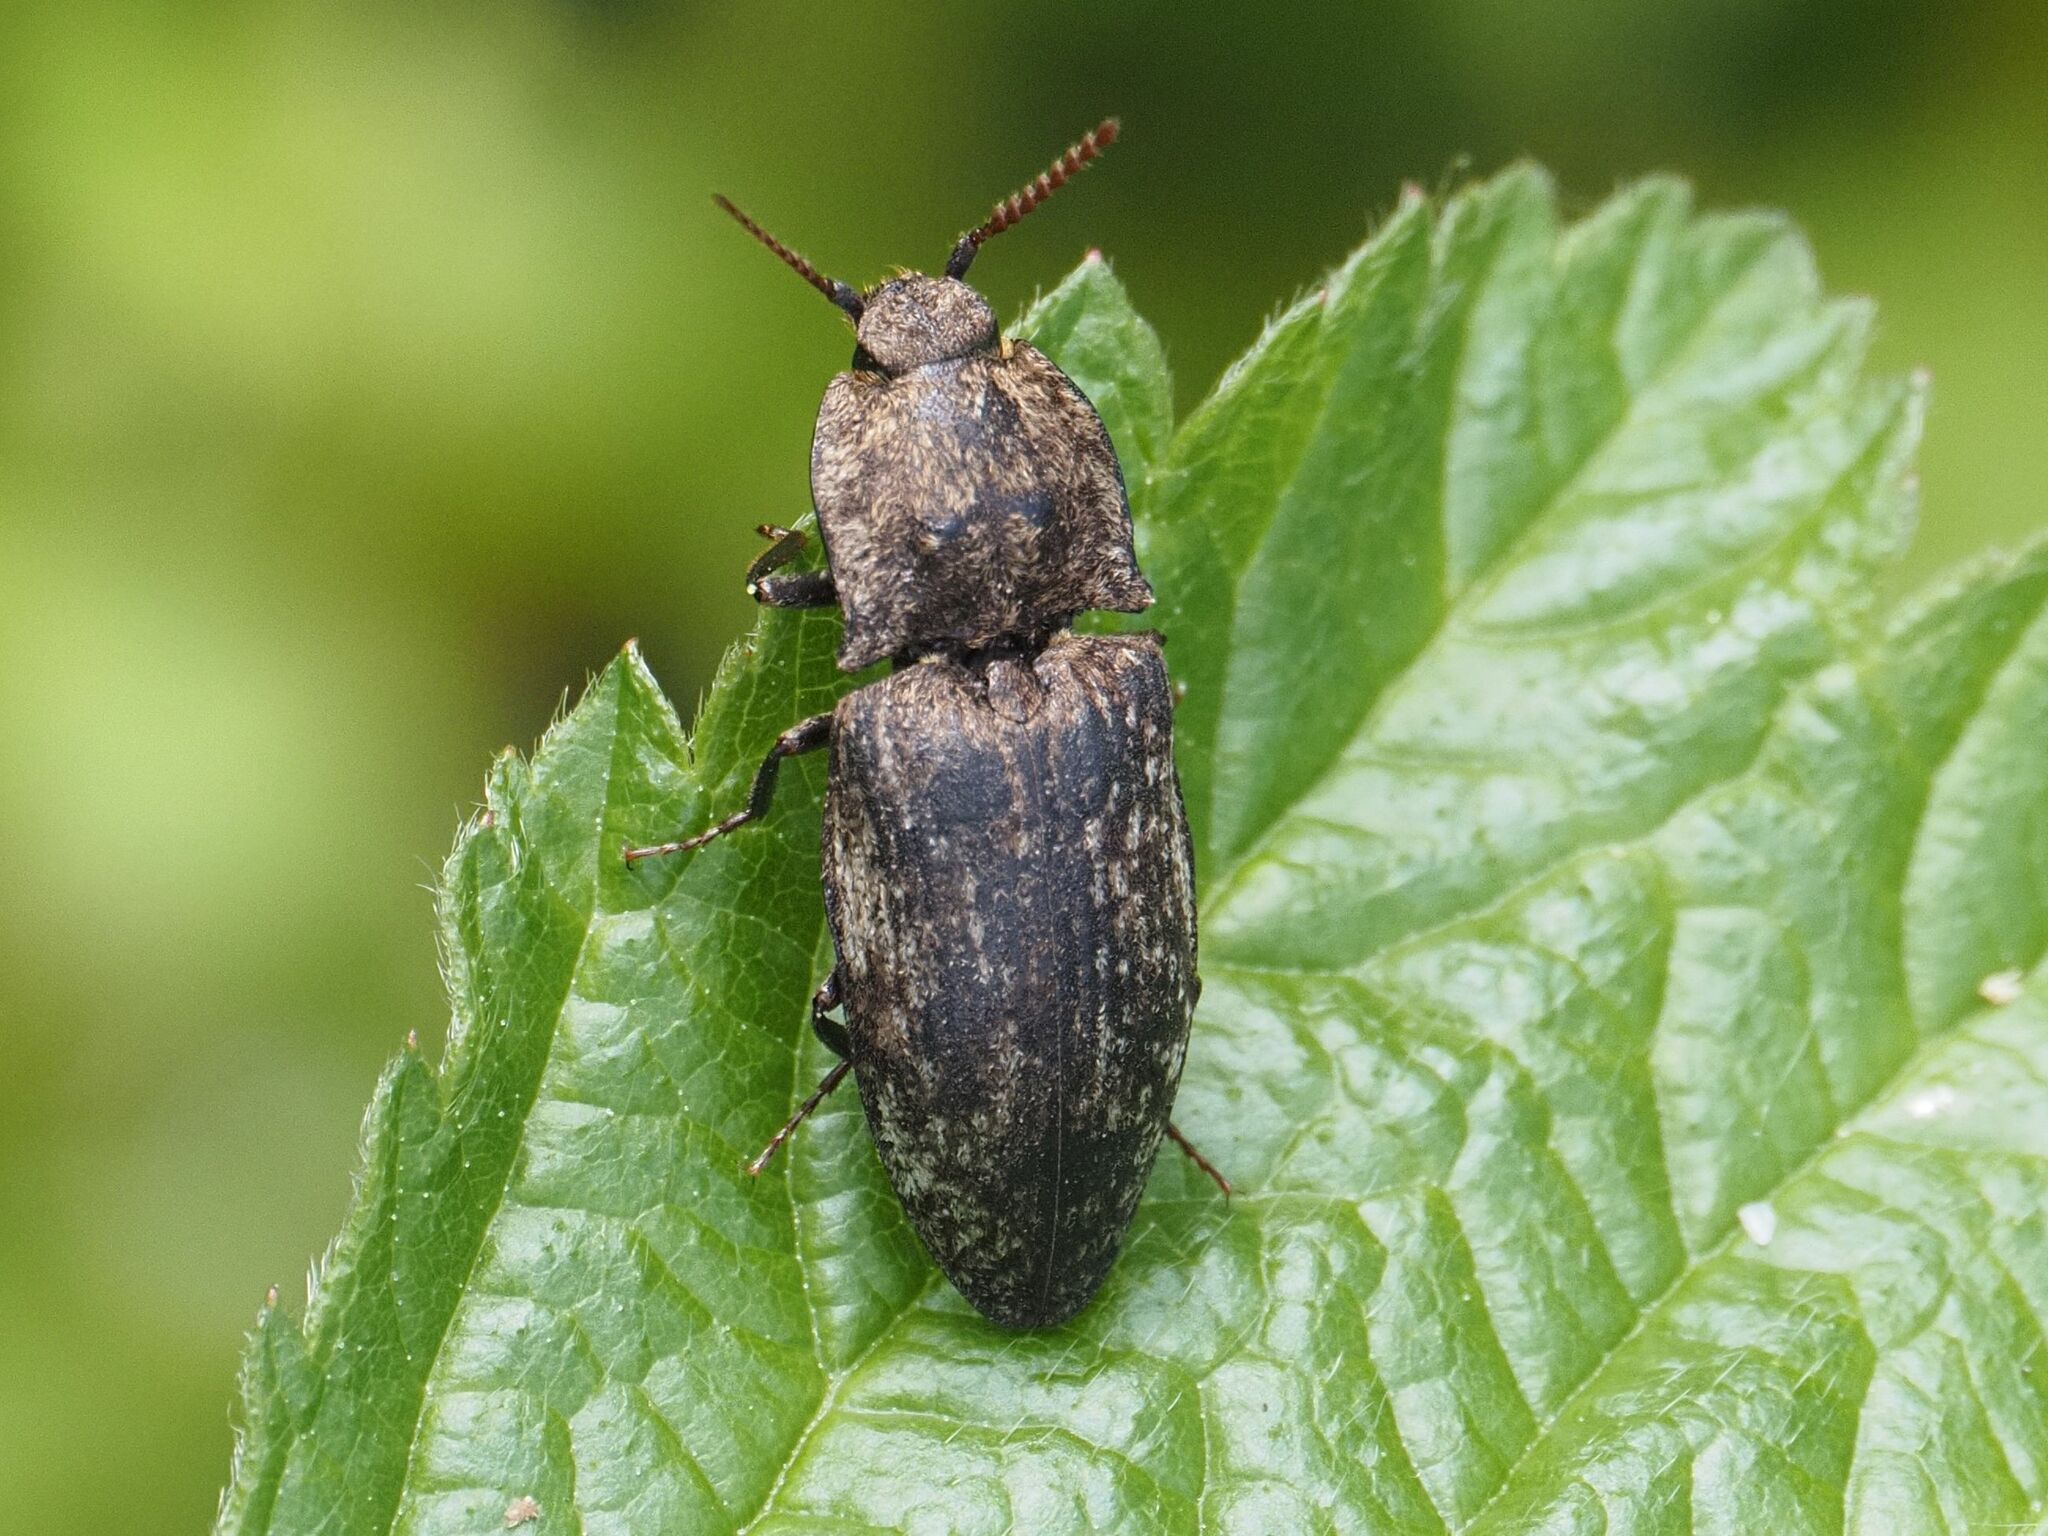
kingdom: Animalia
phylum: Arthropoda
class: Insecta
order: Coleoptera
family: Elateridae
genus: Agrypnus
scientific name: Agrypnus murinus
